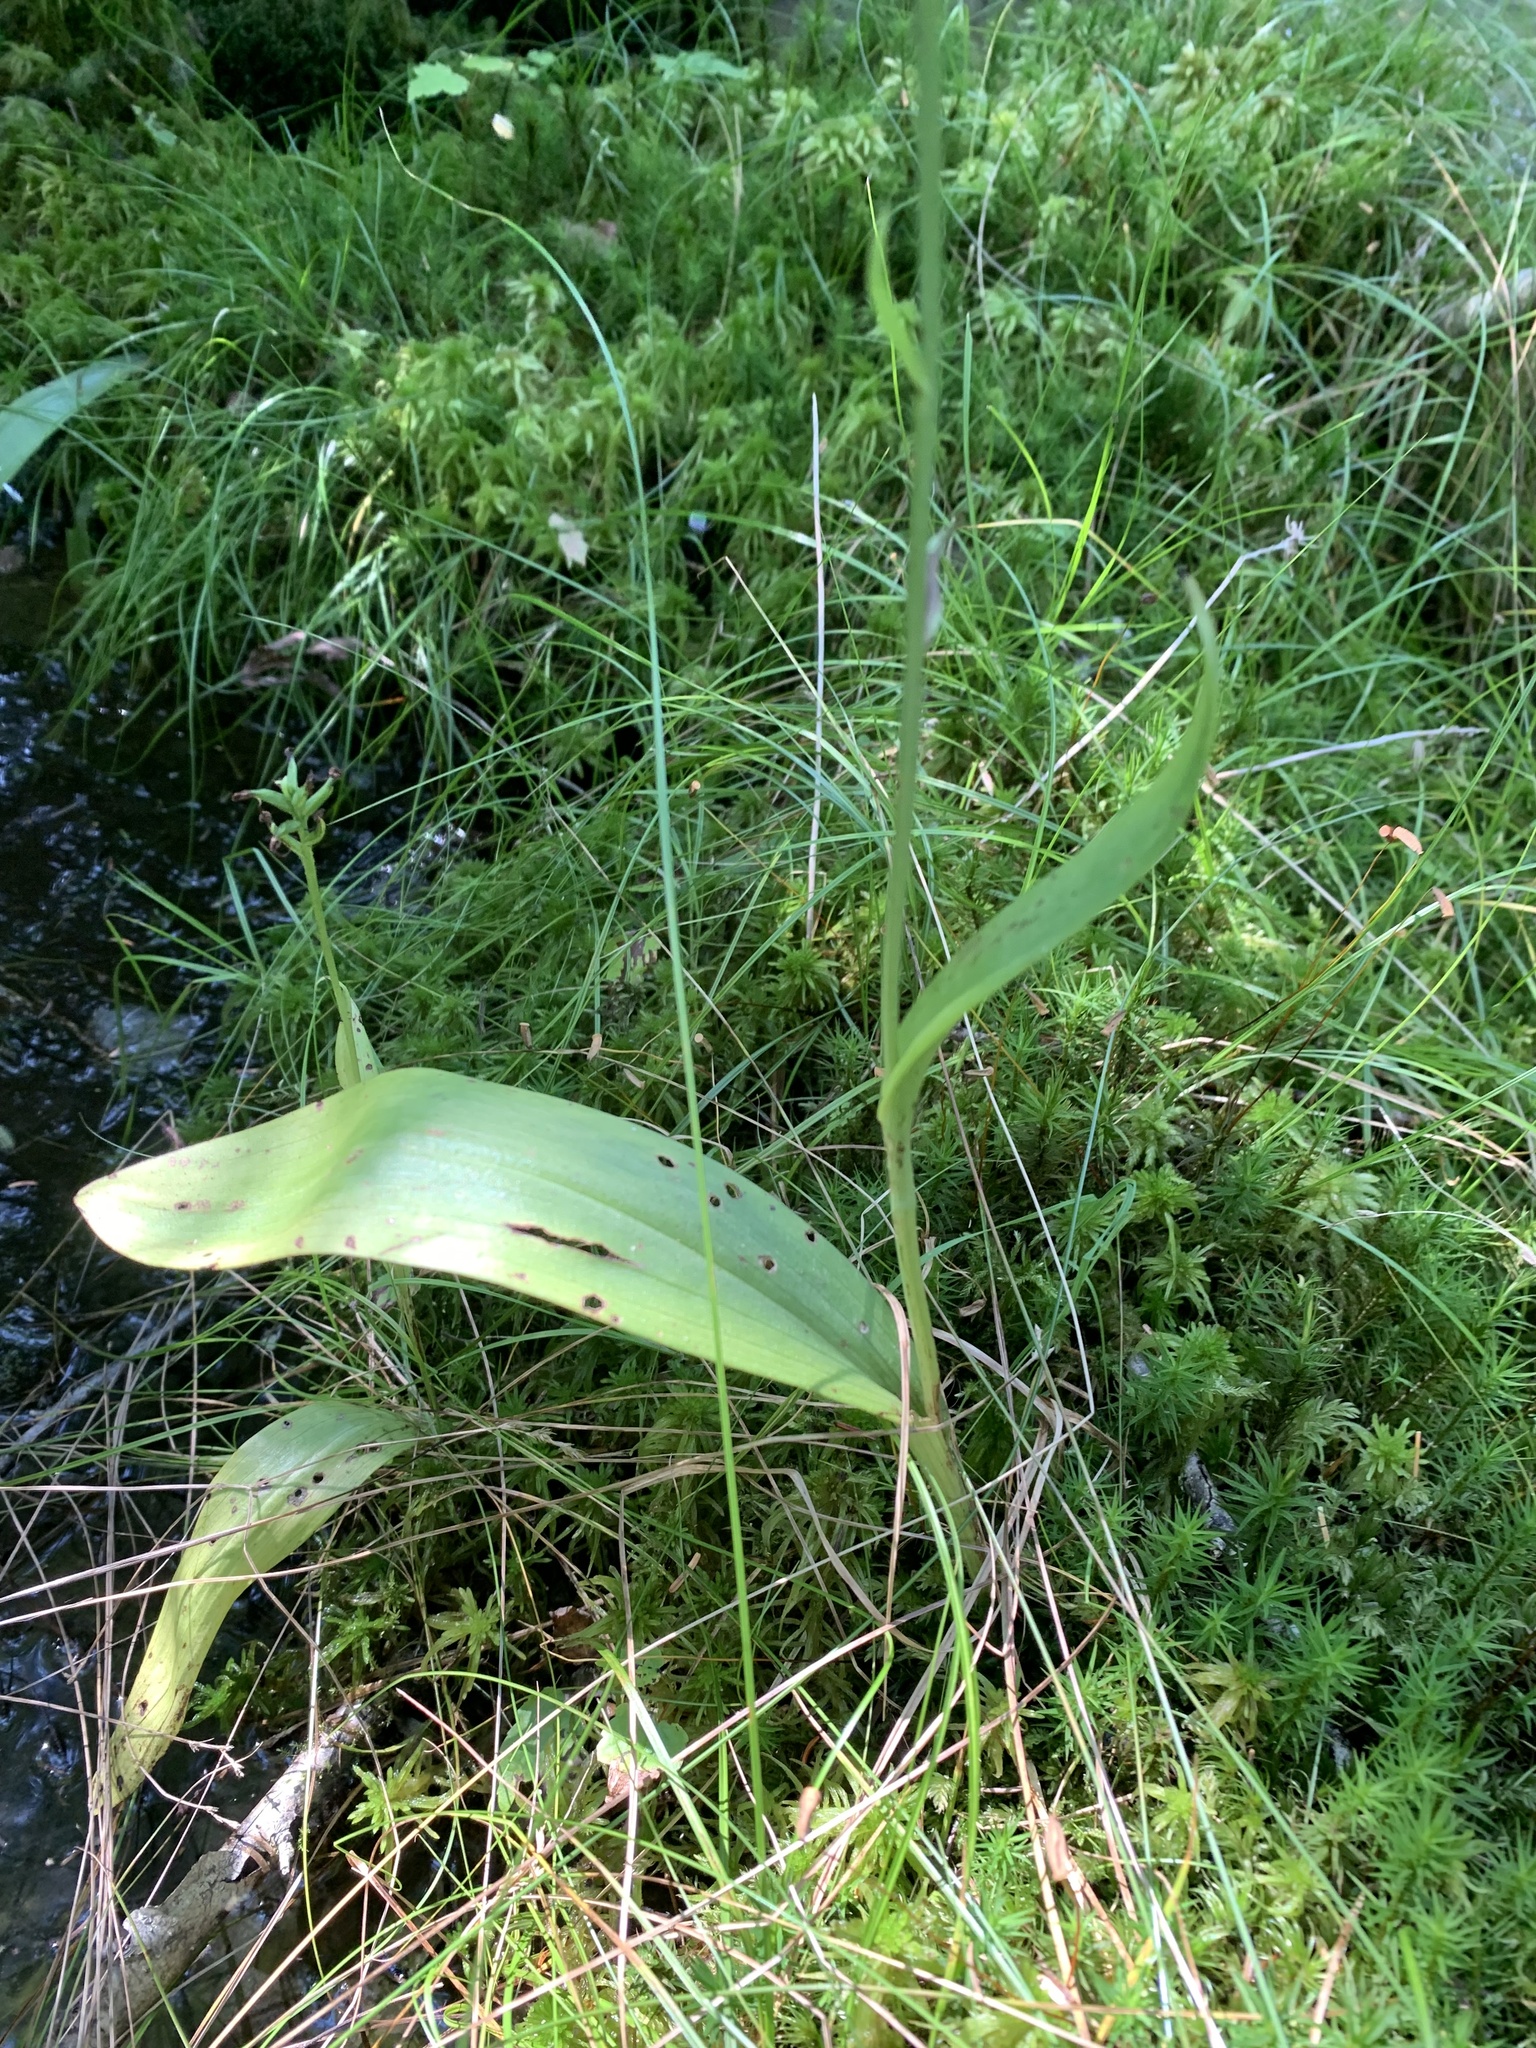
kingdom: Plantae
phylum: Tracheophyta
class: Liliopsida
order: Asparagales
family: Orchidaceae
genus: Platanthera
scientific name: Platanthera clavellata
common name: Club-spur orchid
